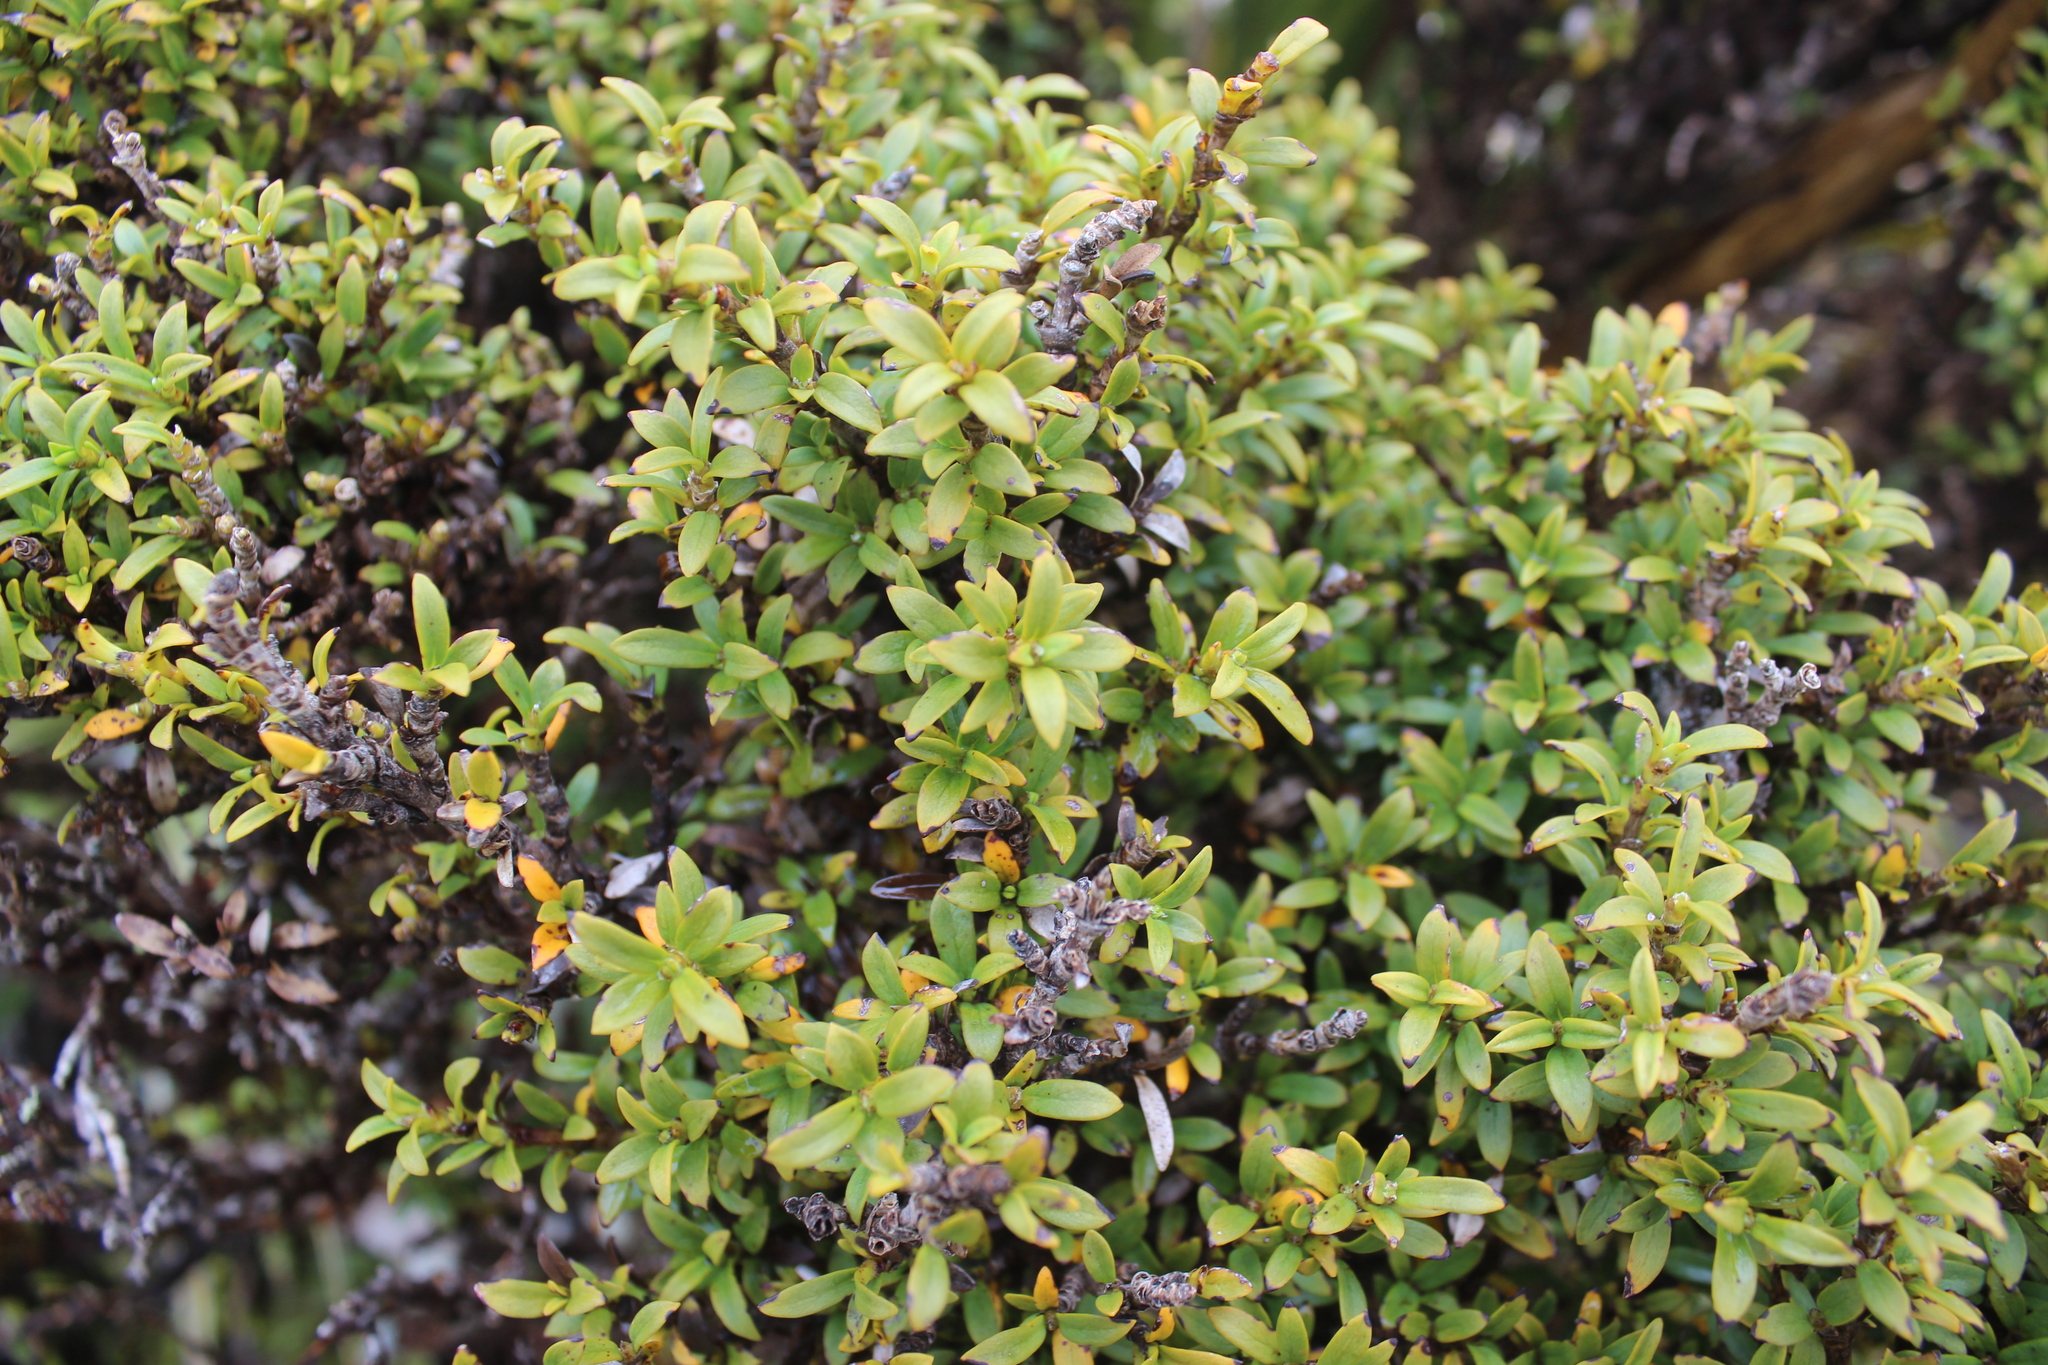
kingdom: Plantae
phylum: Tracheophyta
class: Magnoliopsida
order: Gentianales
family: Rubiaceae
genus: Coprosma
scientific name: Coprosma pseudocuneata
